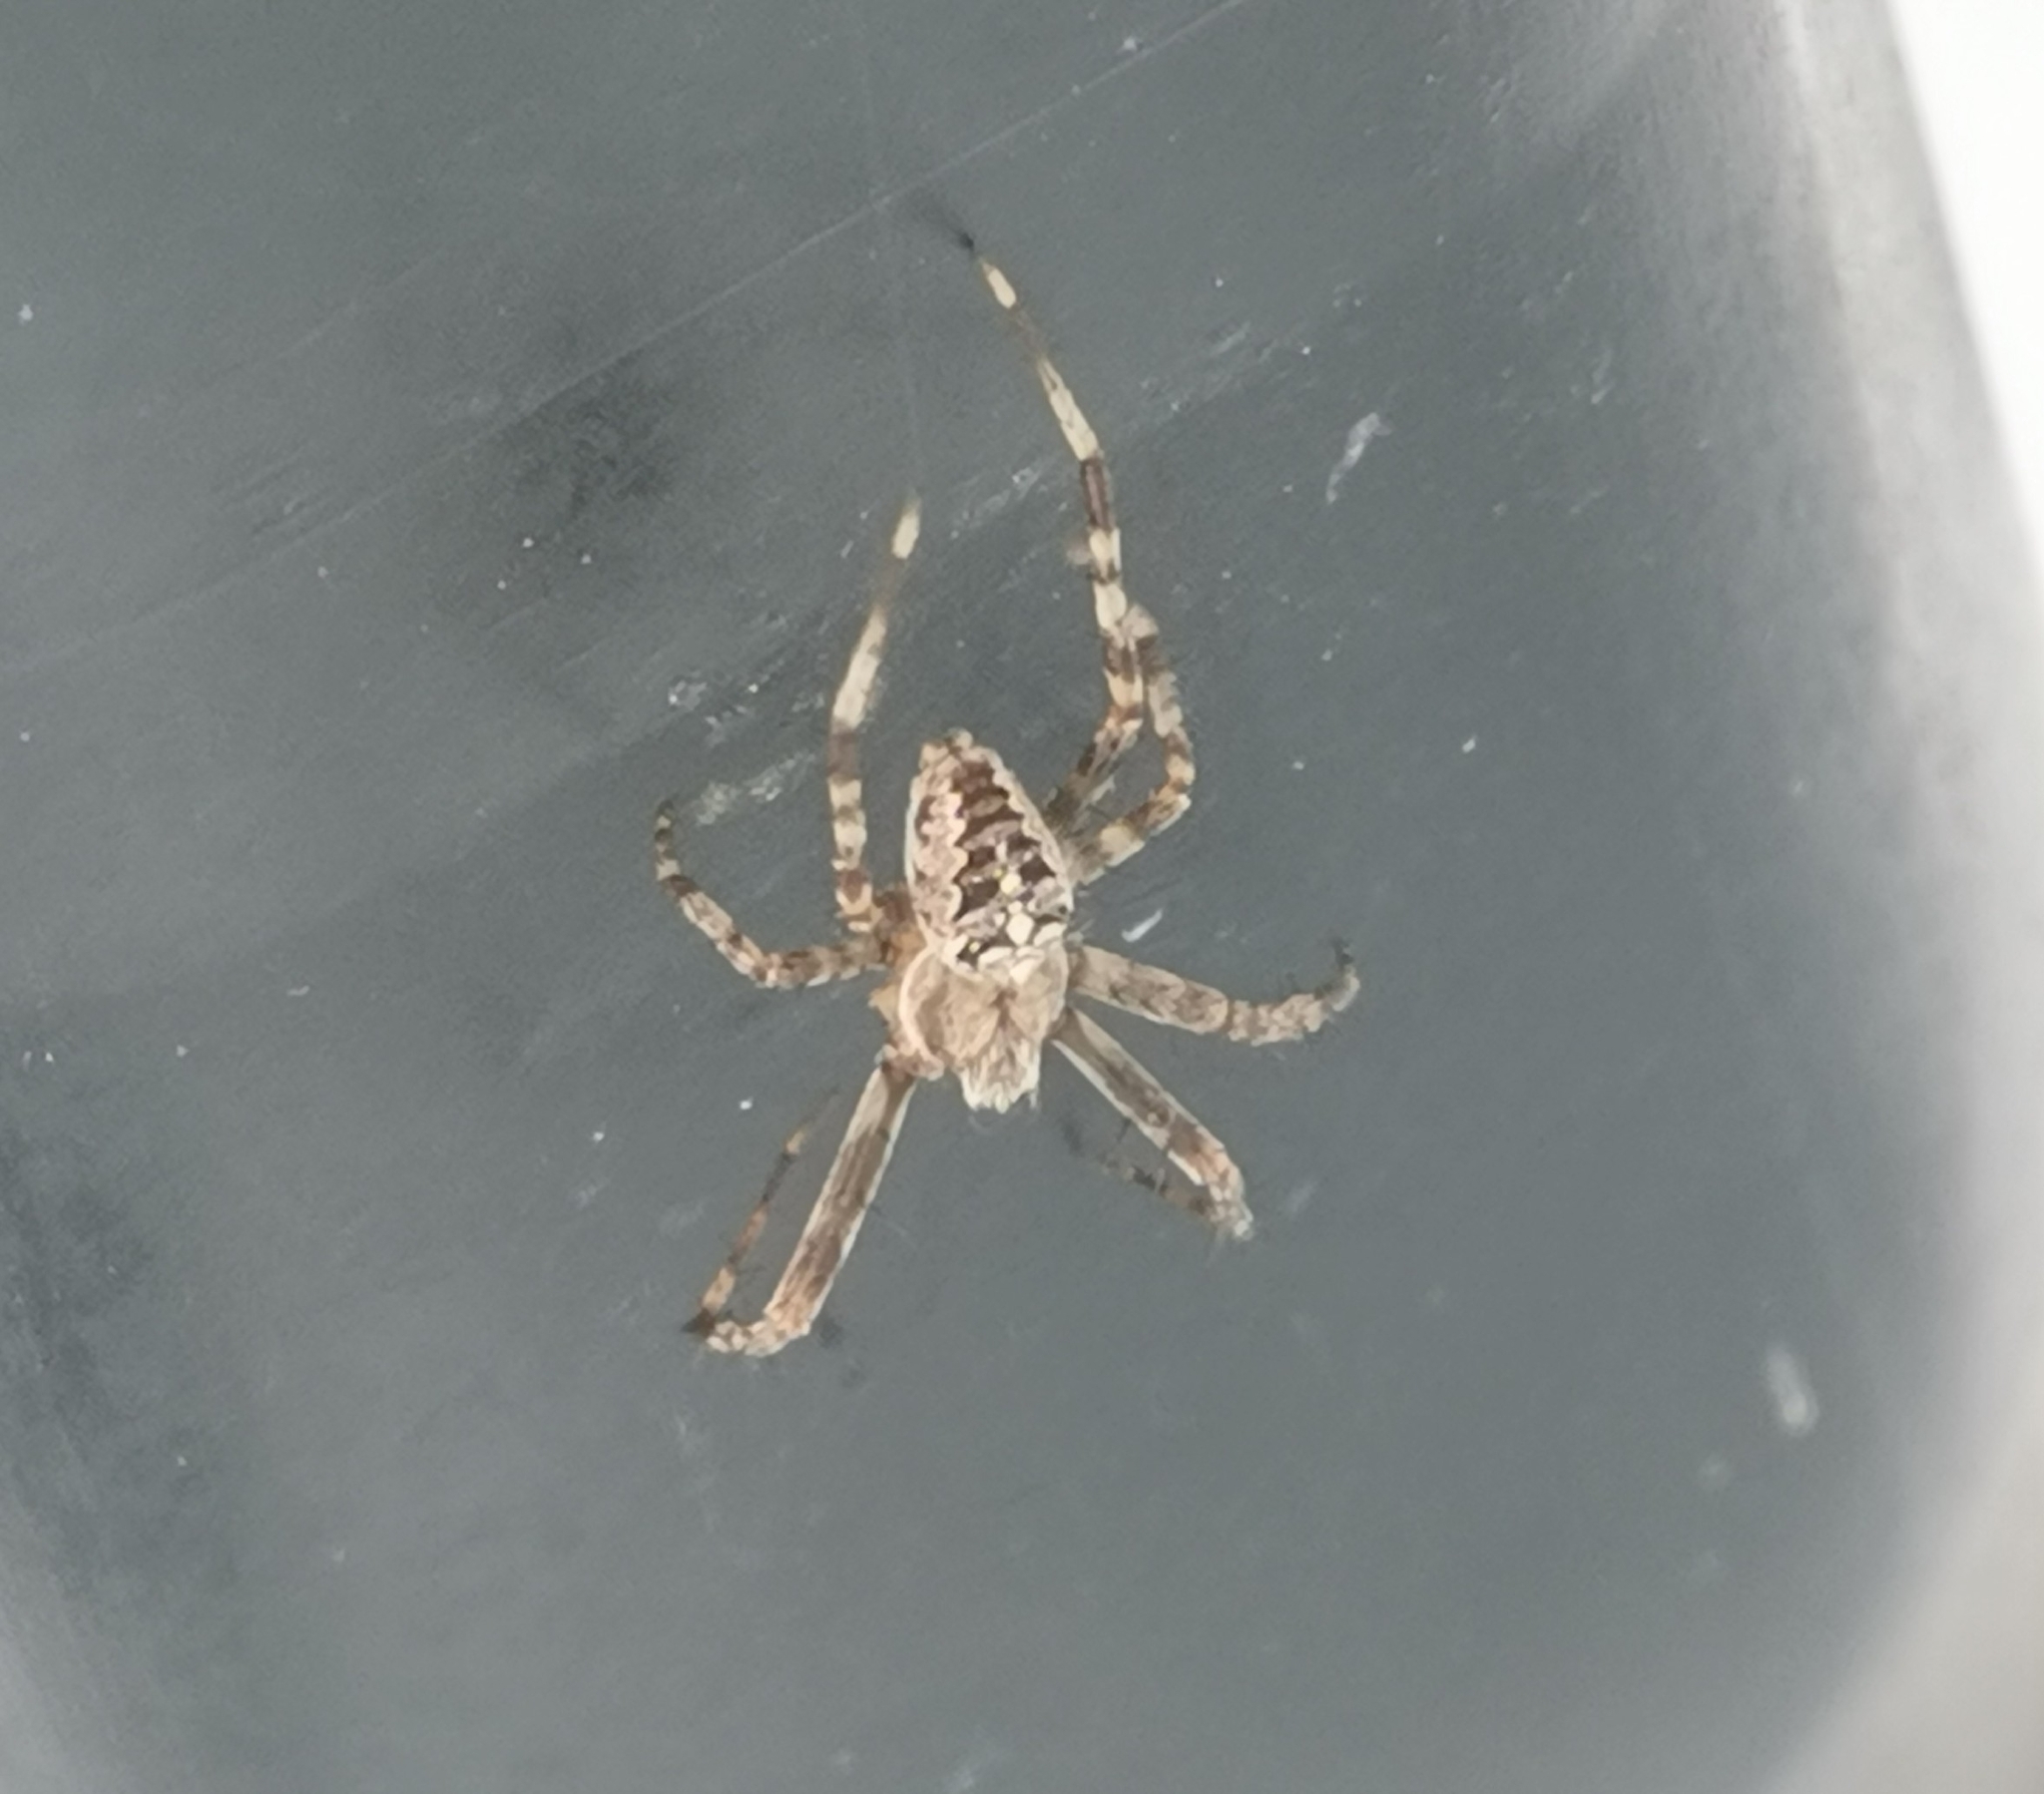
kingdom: Animalia
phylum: Arthropoda
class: Arachnida
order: Araneae
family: Araneidae
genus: Araneus
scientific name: Araneus diadematus
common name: Cross orbweaver
